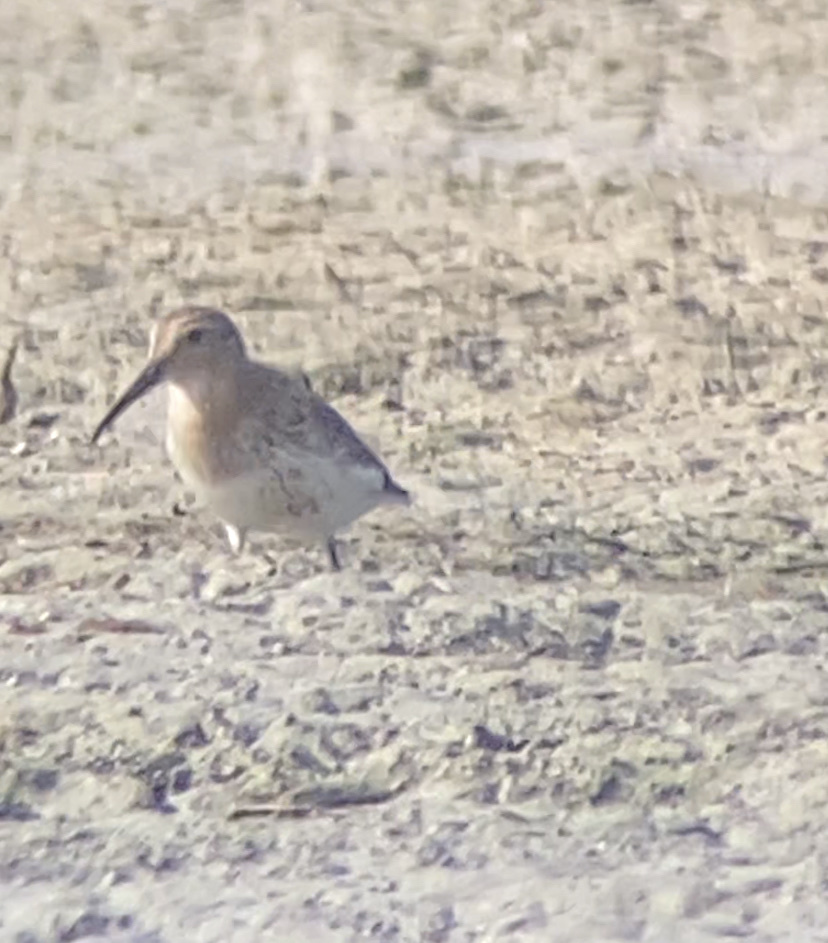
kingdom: Animalia
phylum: Chordata
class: Aves
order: Charadriiformes
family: Scolopacidae
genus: Calidris
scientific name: Calidris alpina
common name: Dunlin
